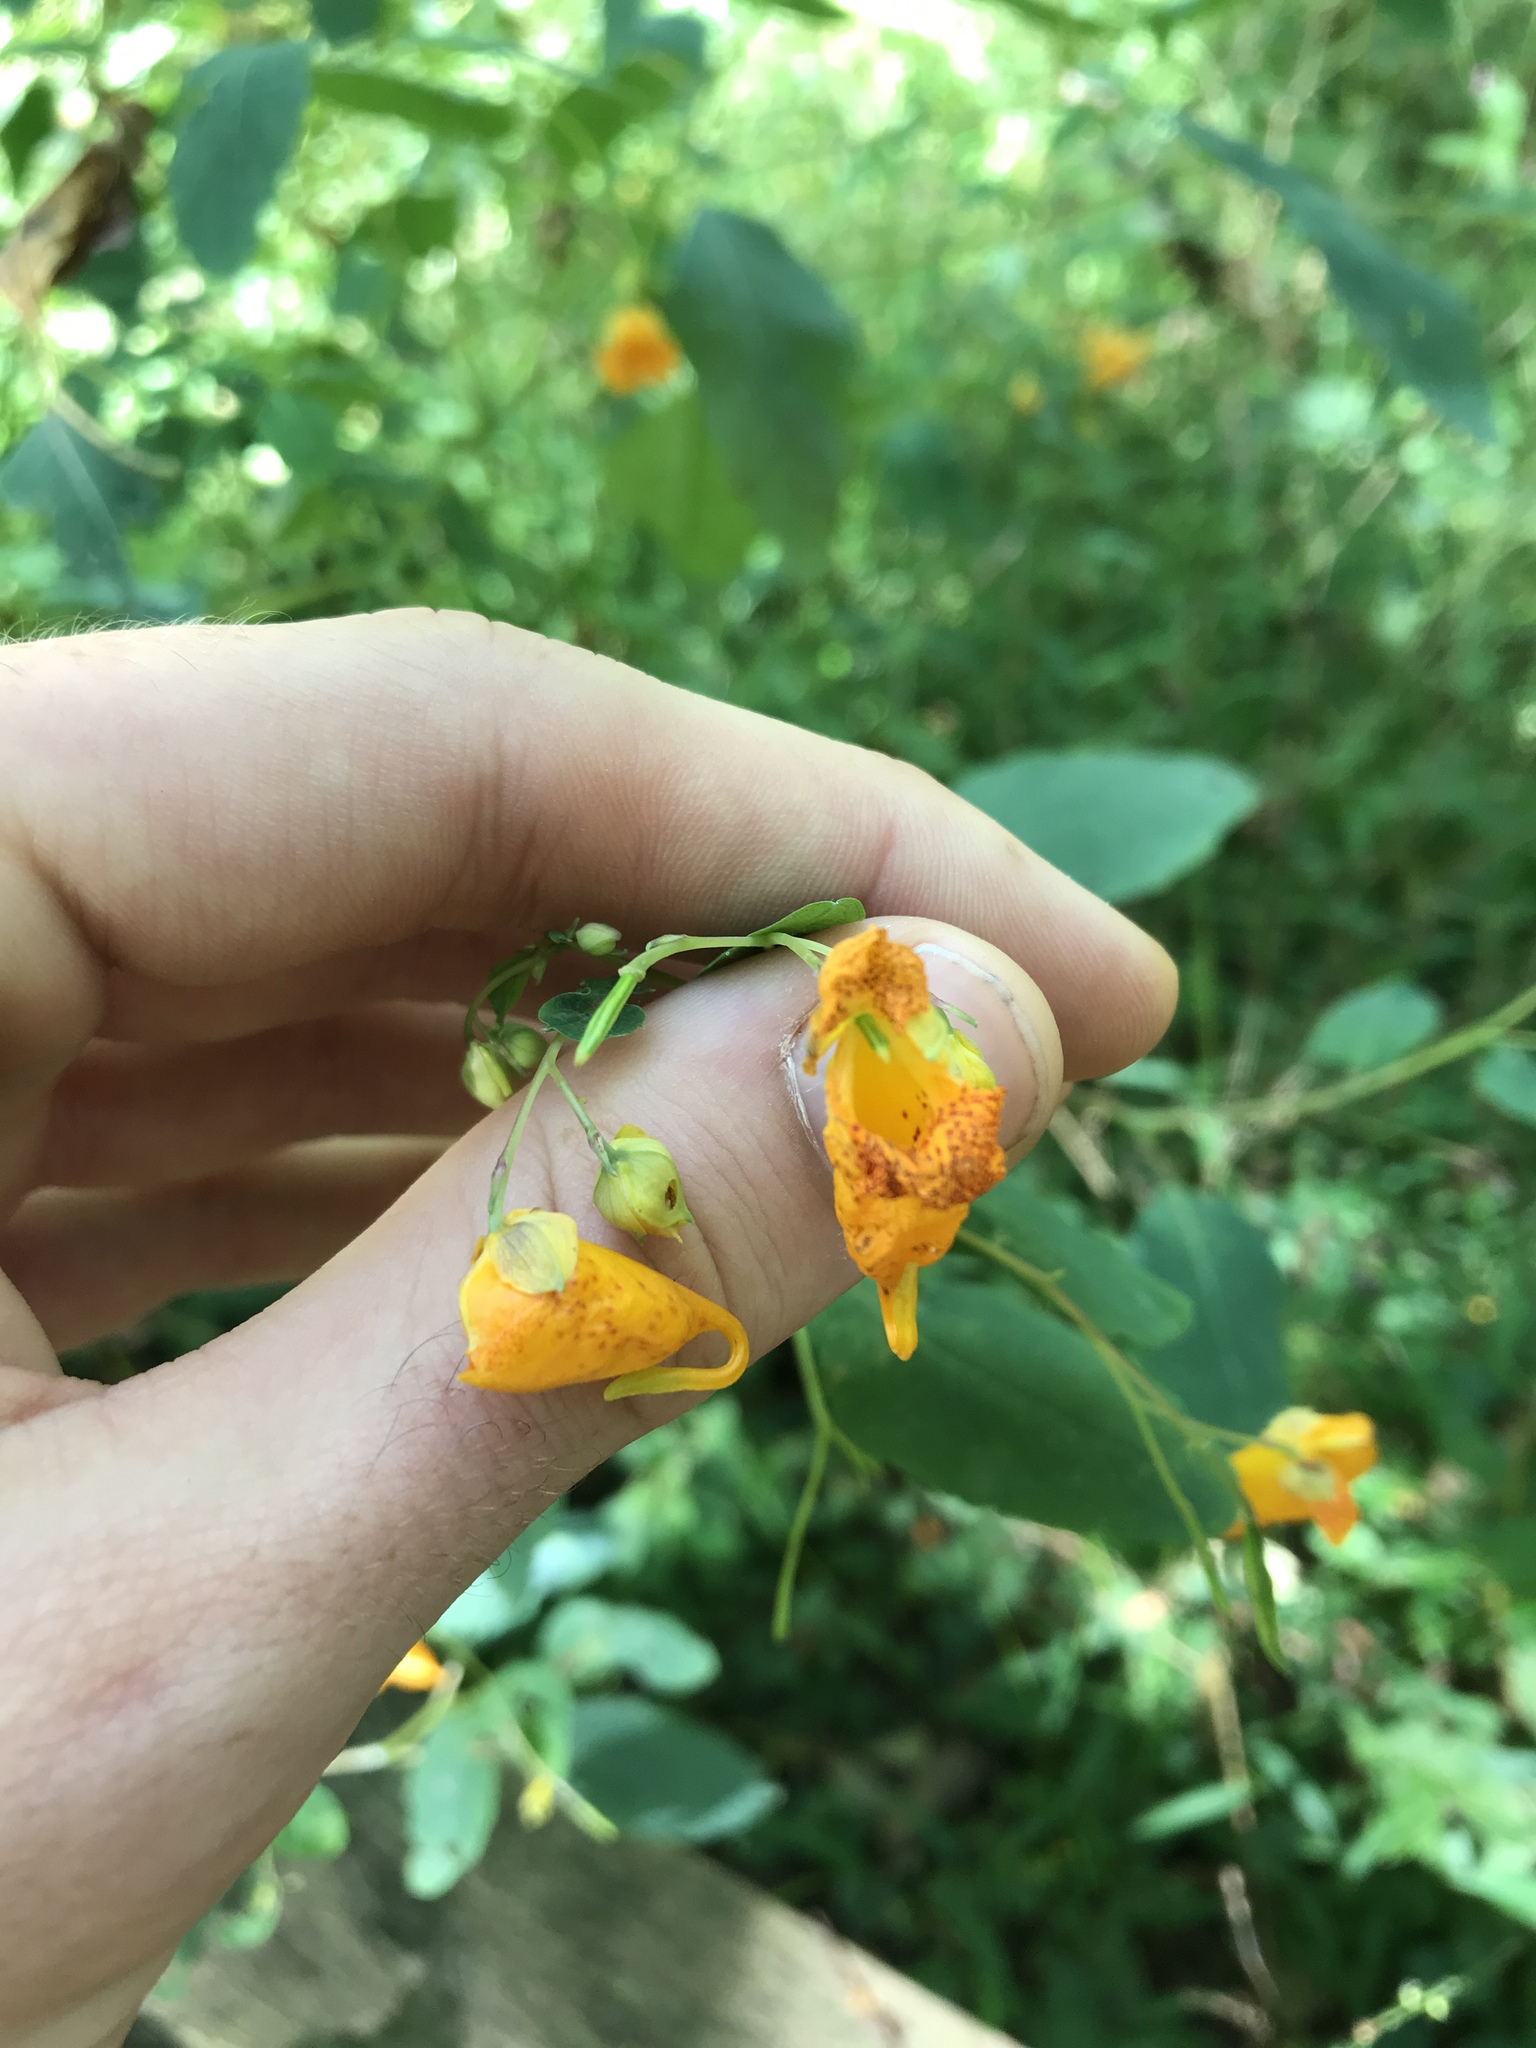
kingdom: Plantae
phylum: Tracheophyta
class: Magnoliopsida
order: Ericales
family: Balsaminaceae
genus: Impatiens
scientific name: Impatiens capensis
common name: Orange balsam
